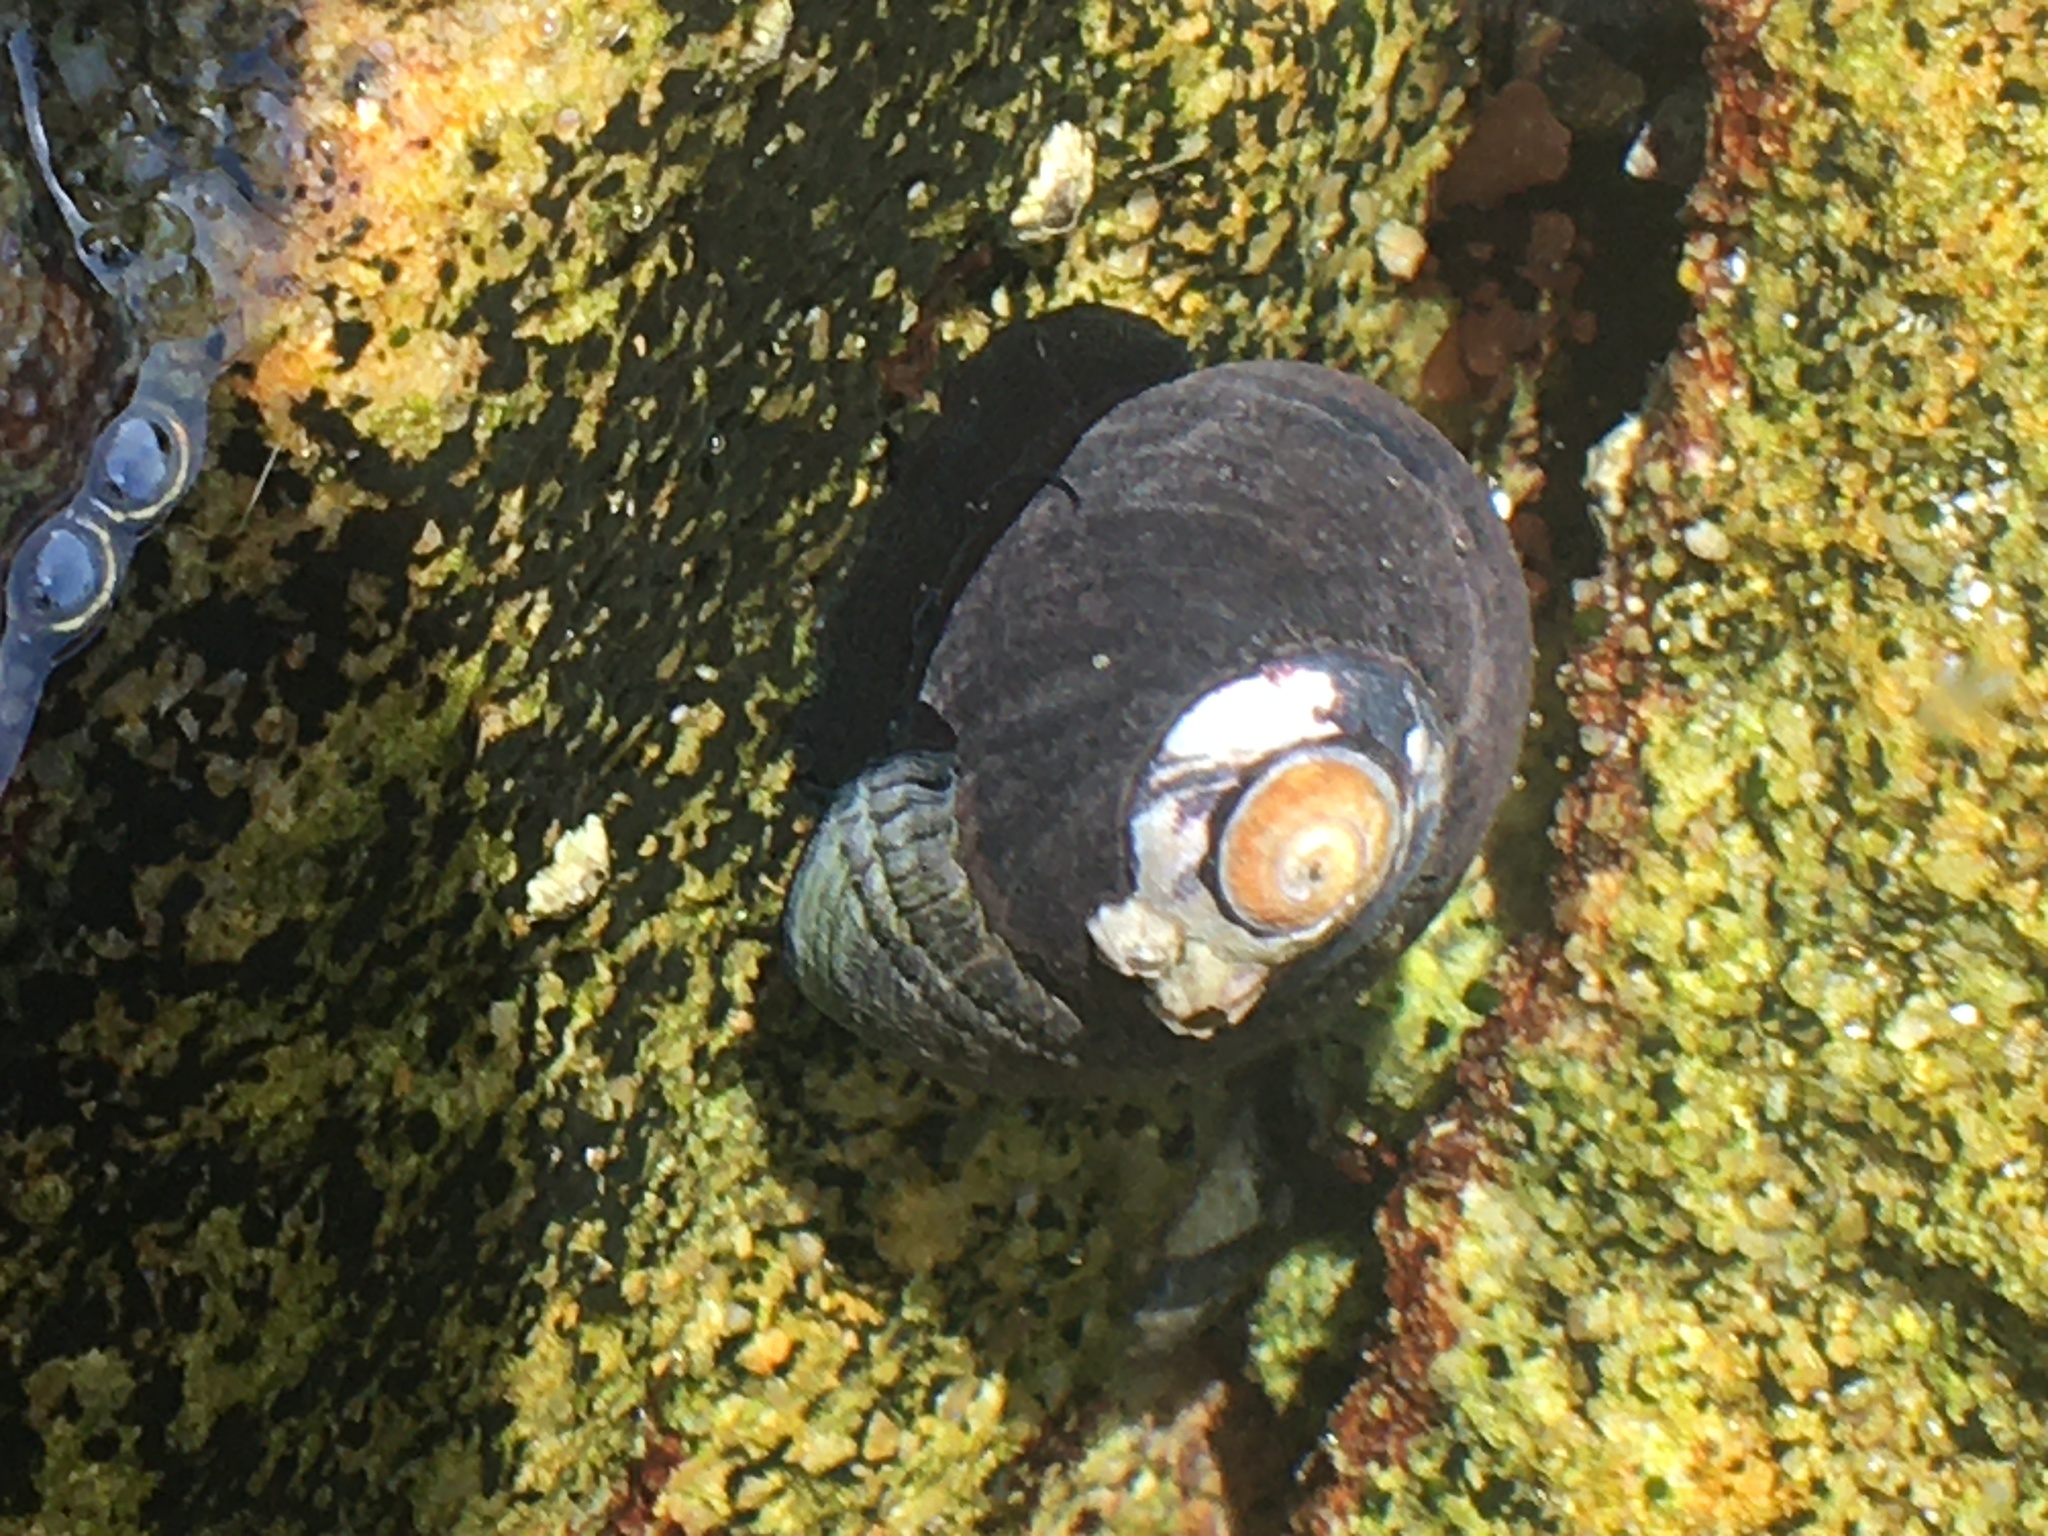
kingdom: Animalia
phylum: Mollusca
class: Gastropoda
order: Trochida
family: Tegulidae
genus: Tegula
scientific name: Tegula funebralis
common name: Black tegula
